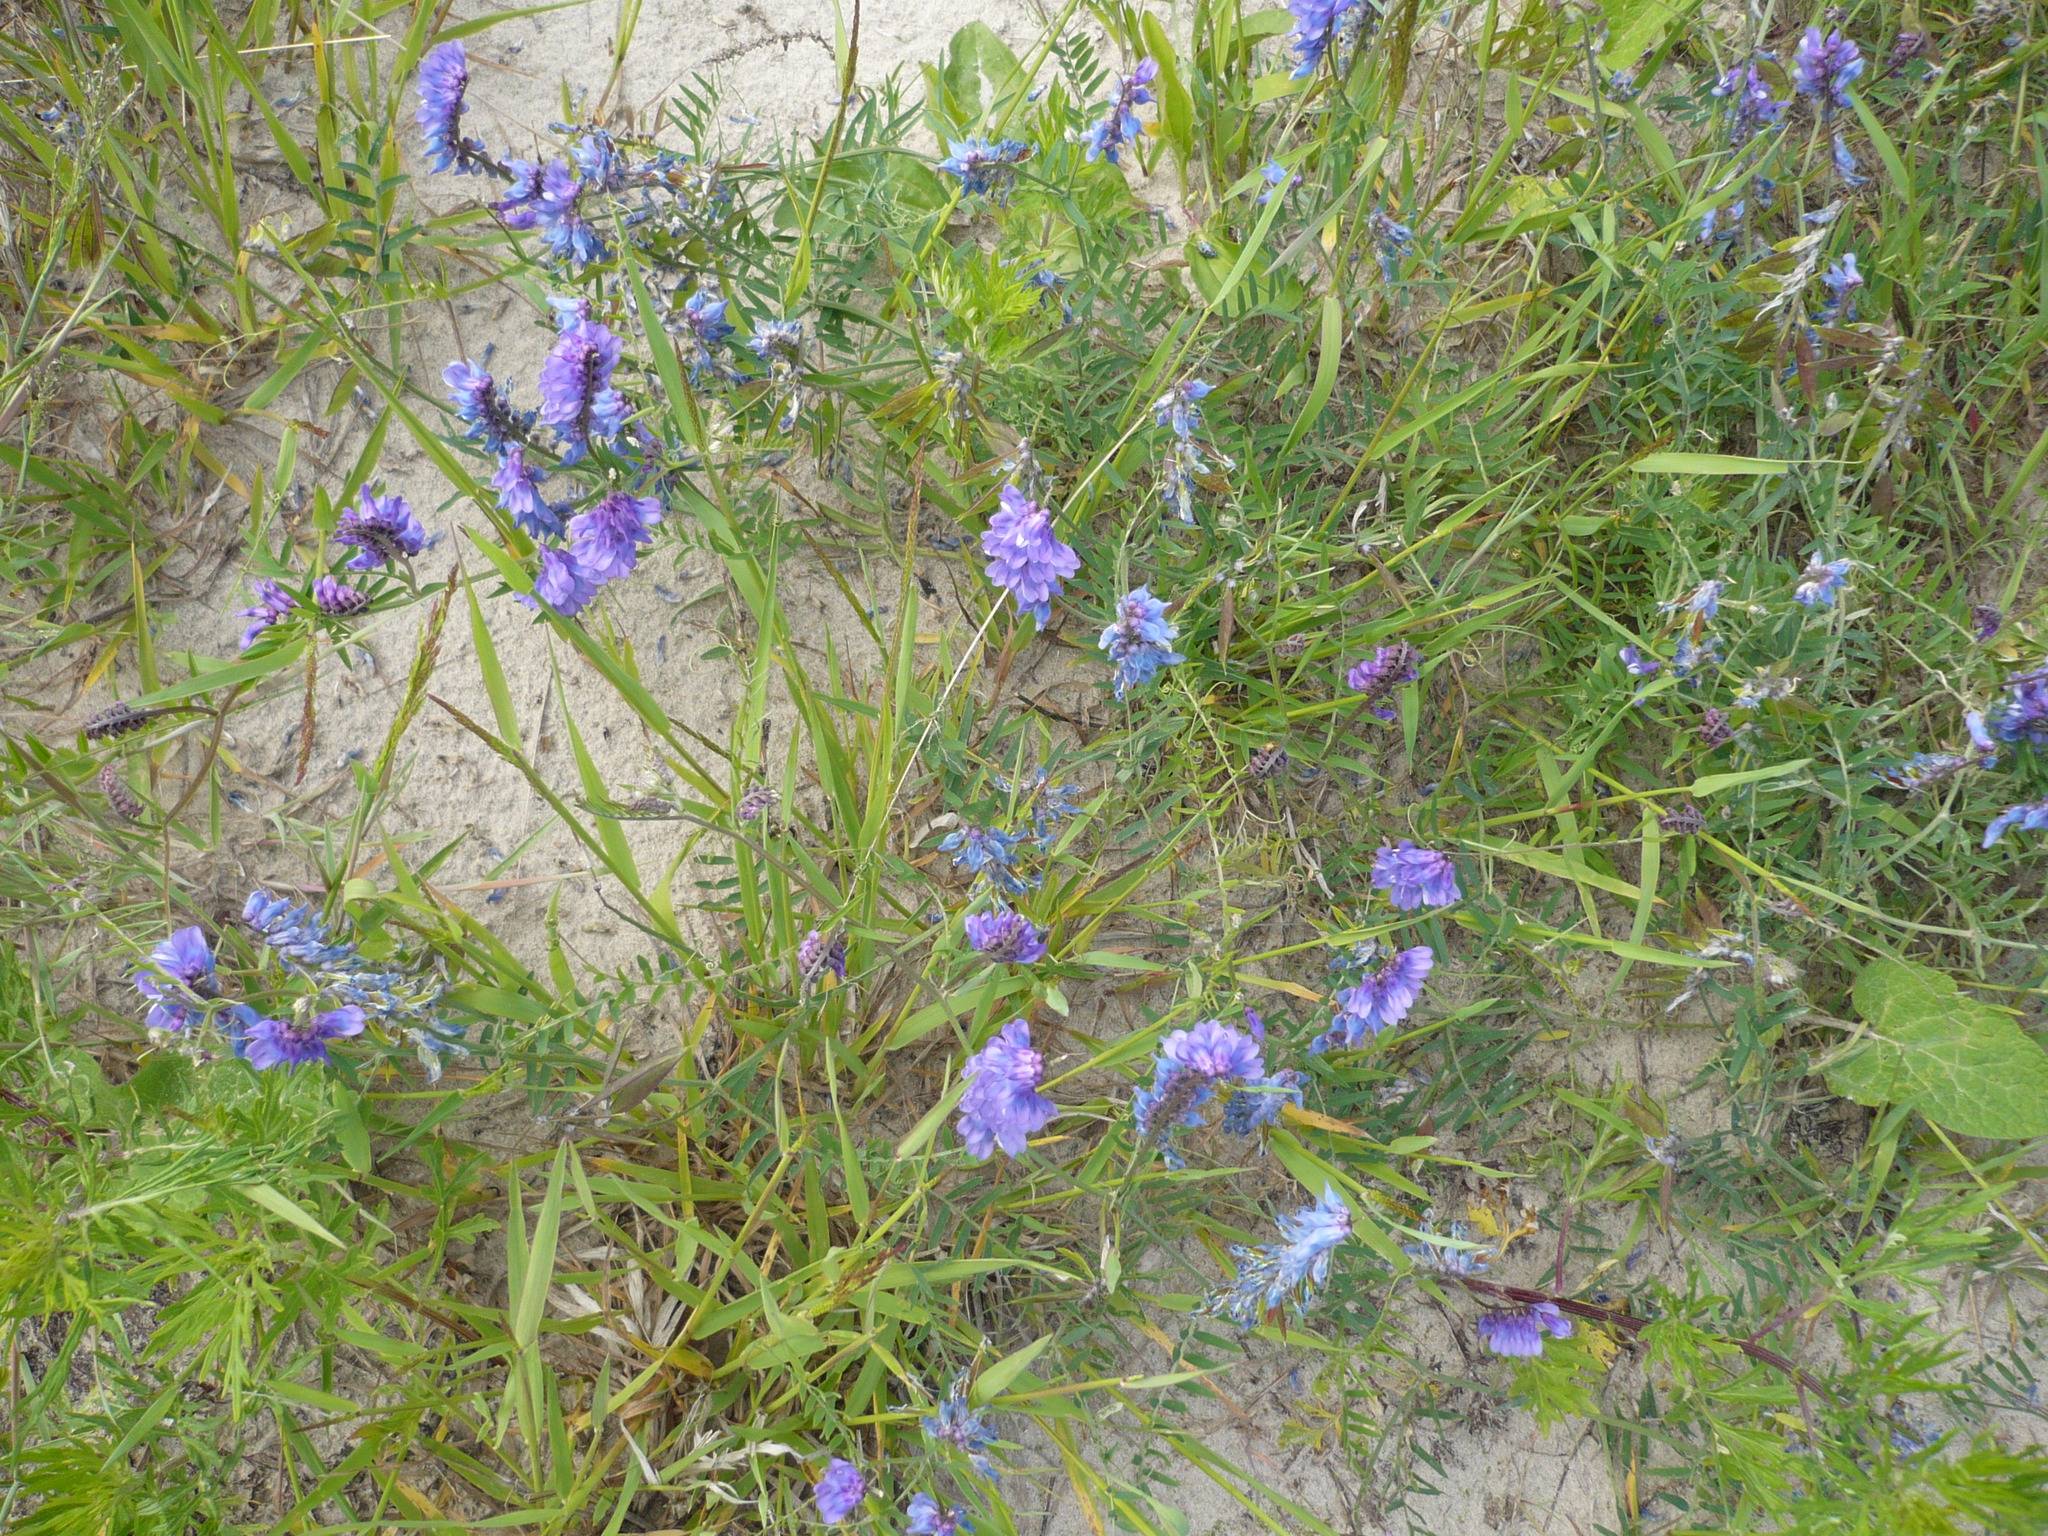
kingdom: Plantae
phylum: Tracheophyta
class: Magnoliopsida
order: Fabales
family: Fabaceae
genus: Vicia
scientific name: Vicia cracca
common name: Bird vetch
